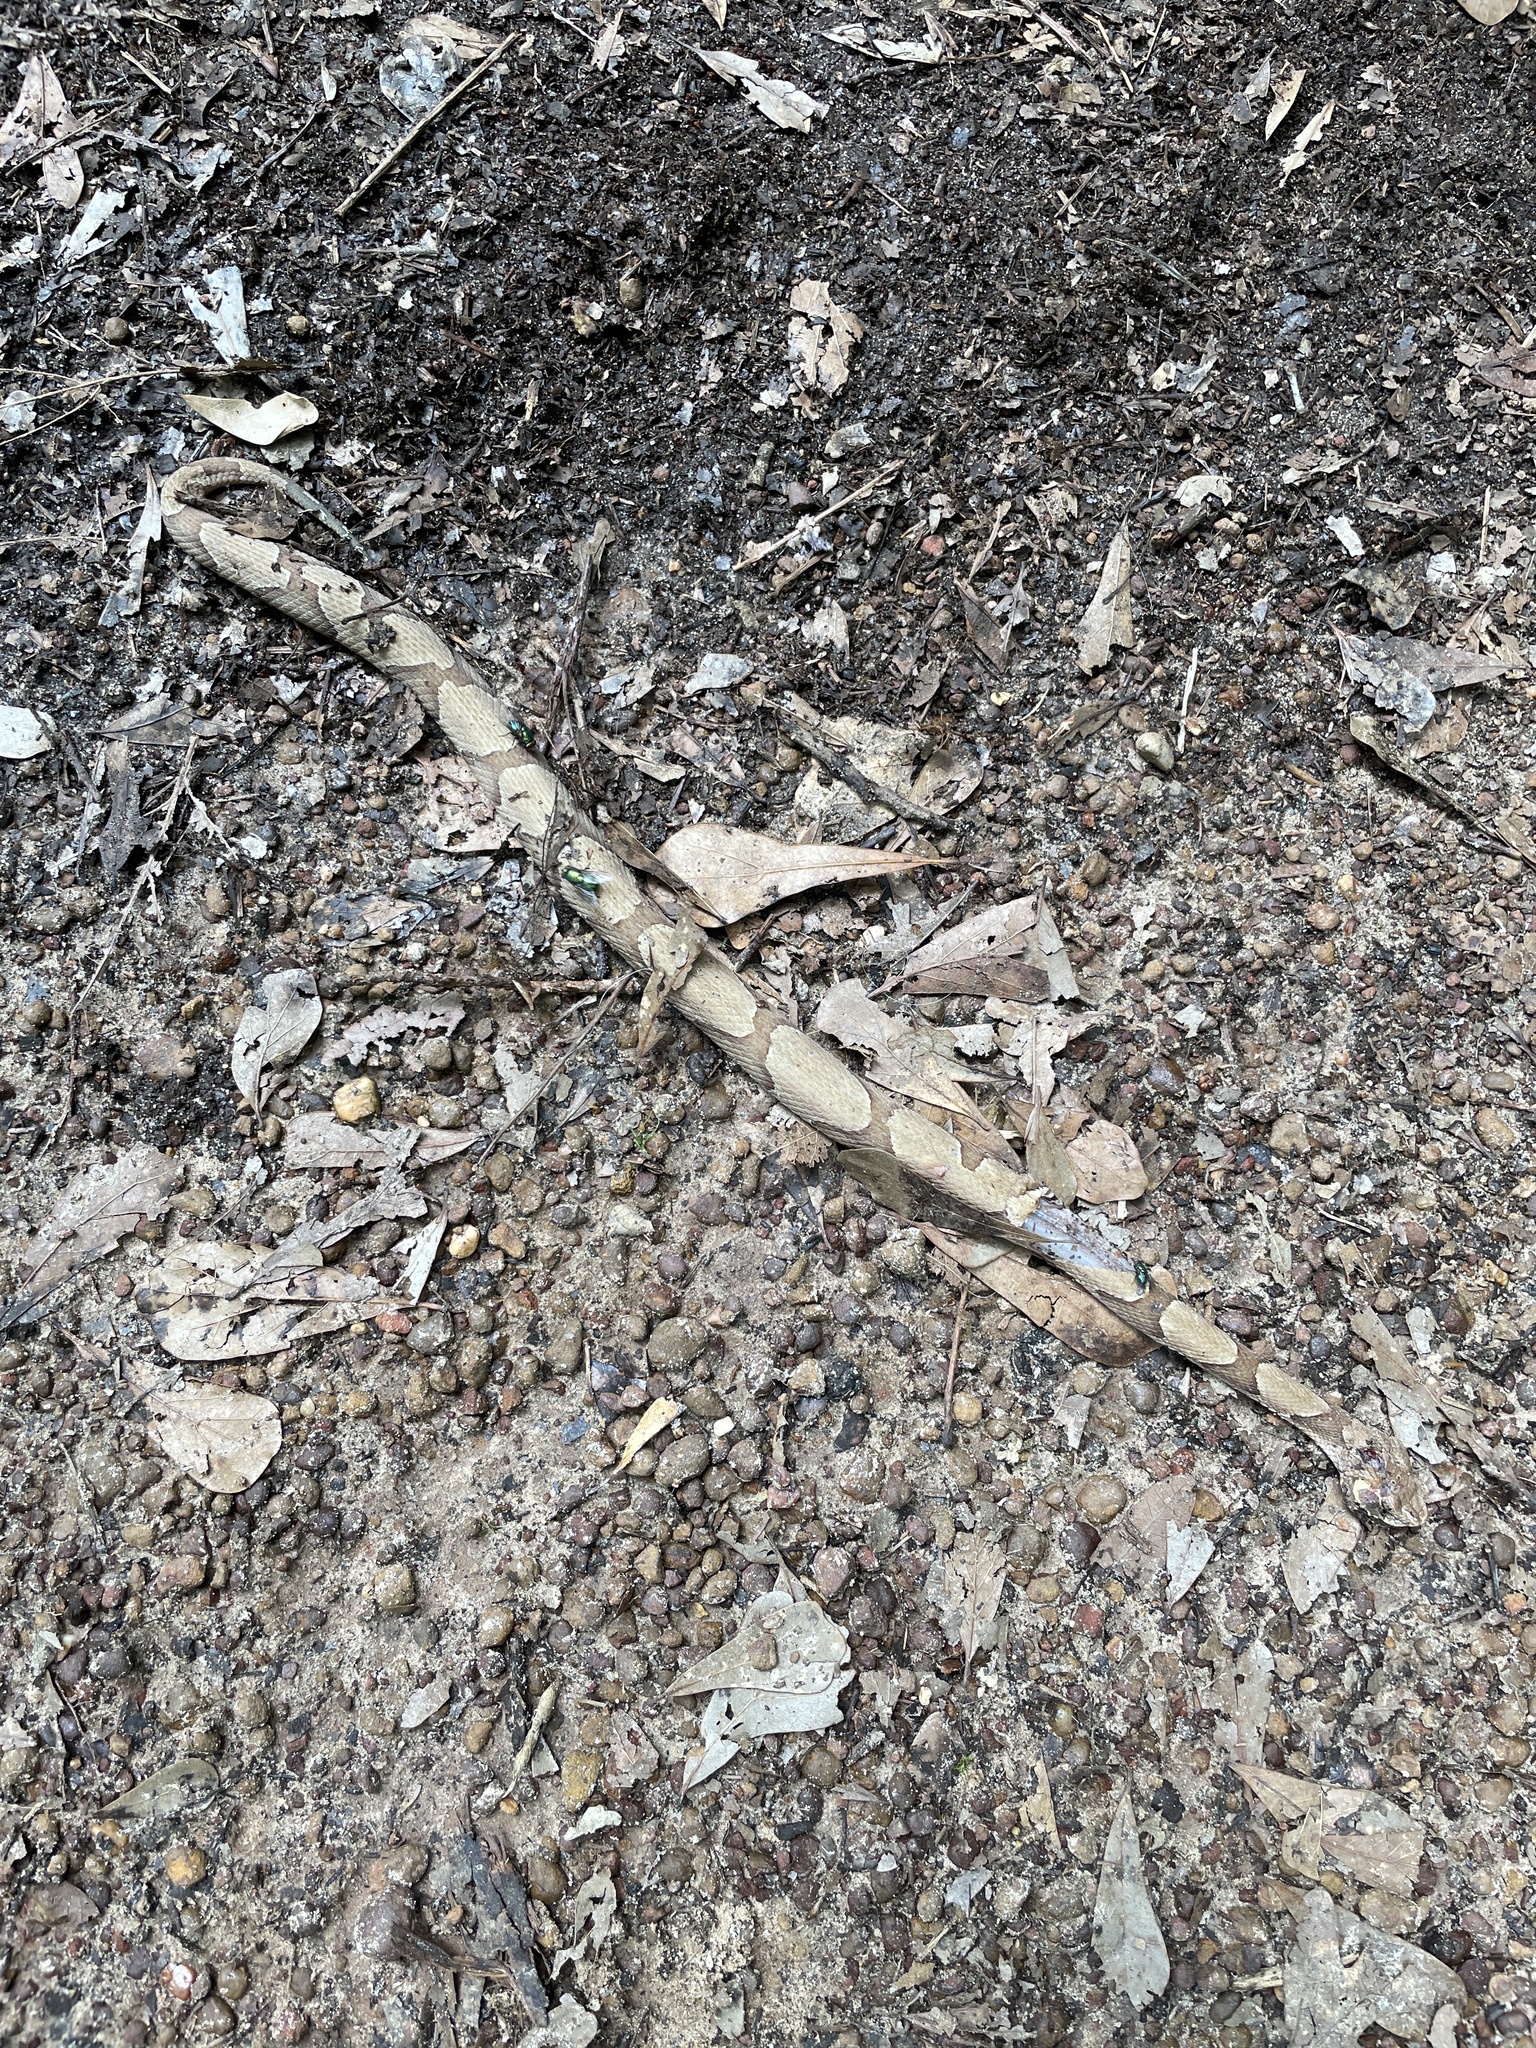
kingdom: Animalia
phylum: Chordata
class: Squamata
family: Viperidae
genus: Agkistrodon
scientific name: Agkistrodon contortrix
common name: Northern copperhead
